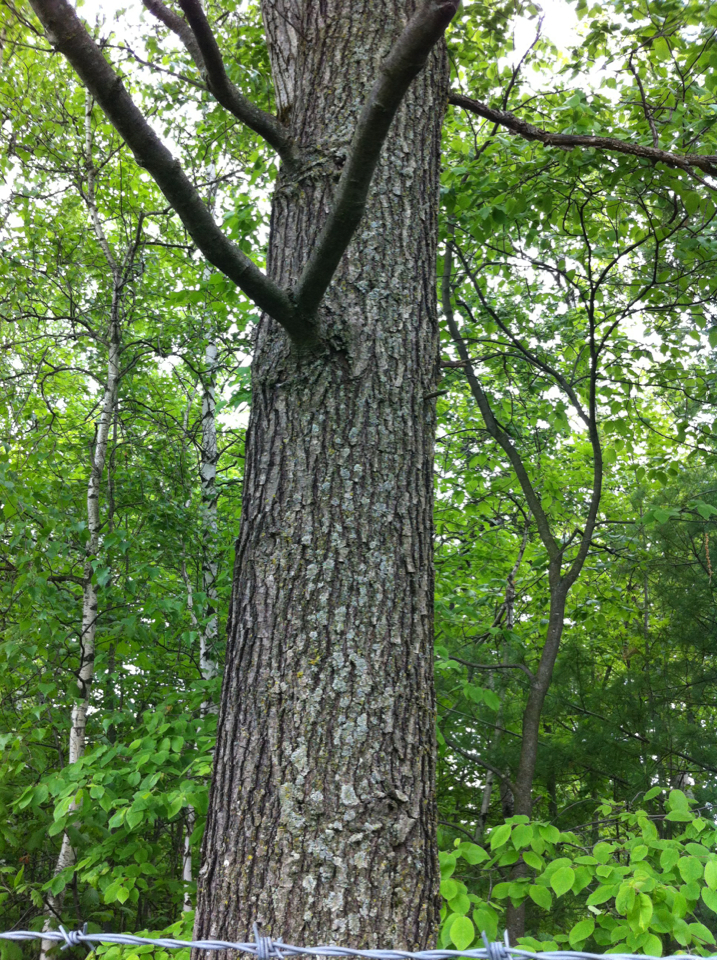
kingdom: Plantae
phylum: Tracheophyta
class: Magnoliopsida
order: Fagales
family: Fagaceae
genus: Quercus
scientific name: Quercus velutina
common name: Black oak
